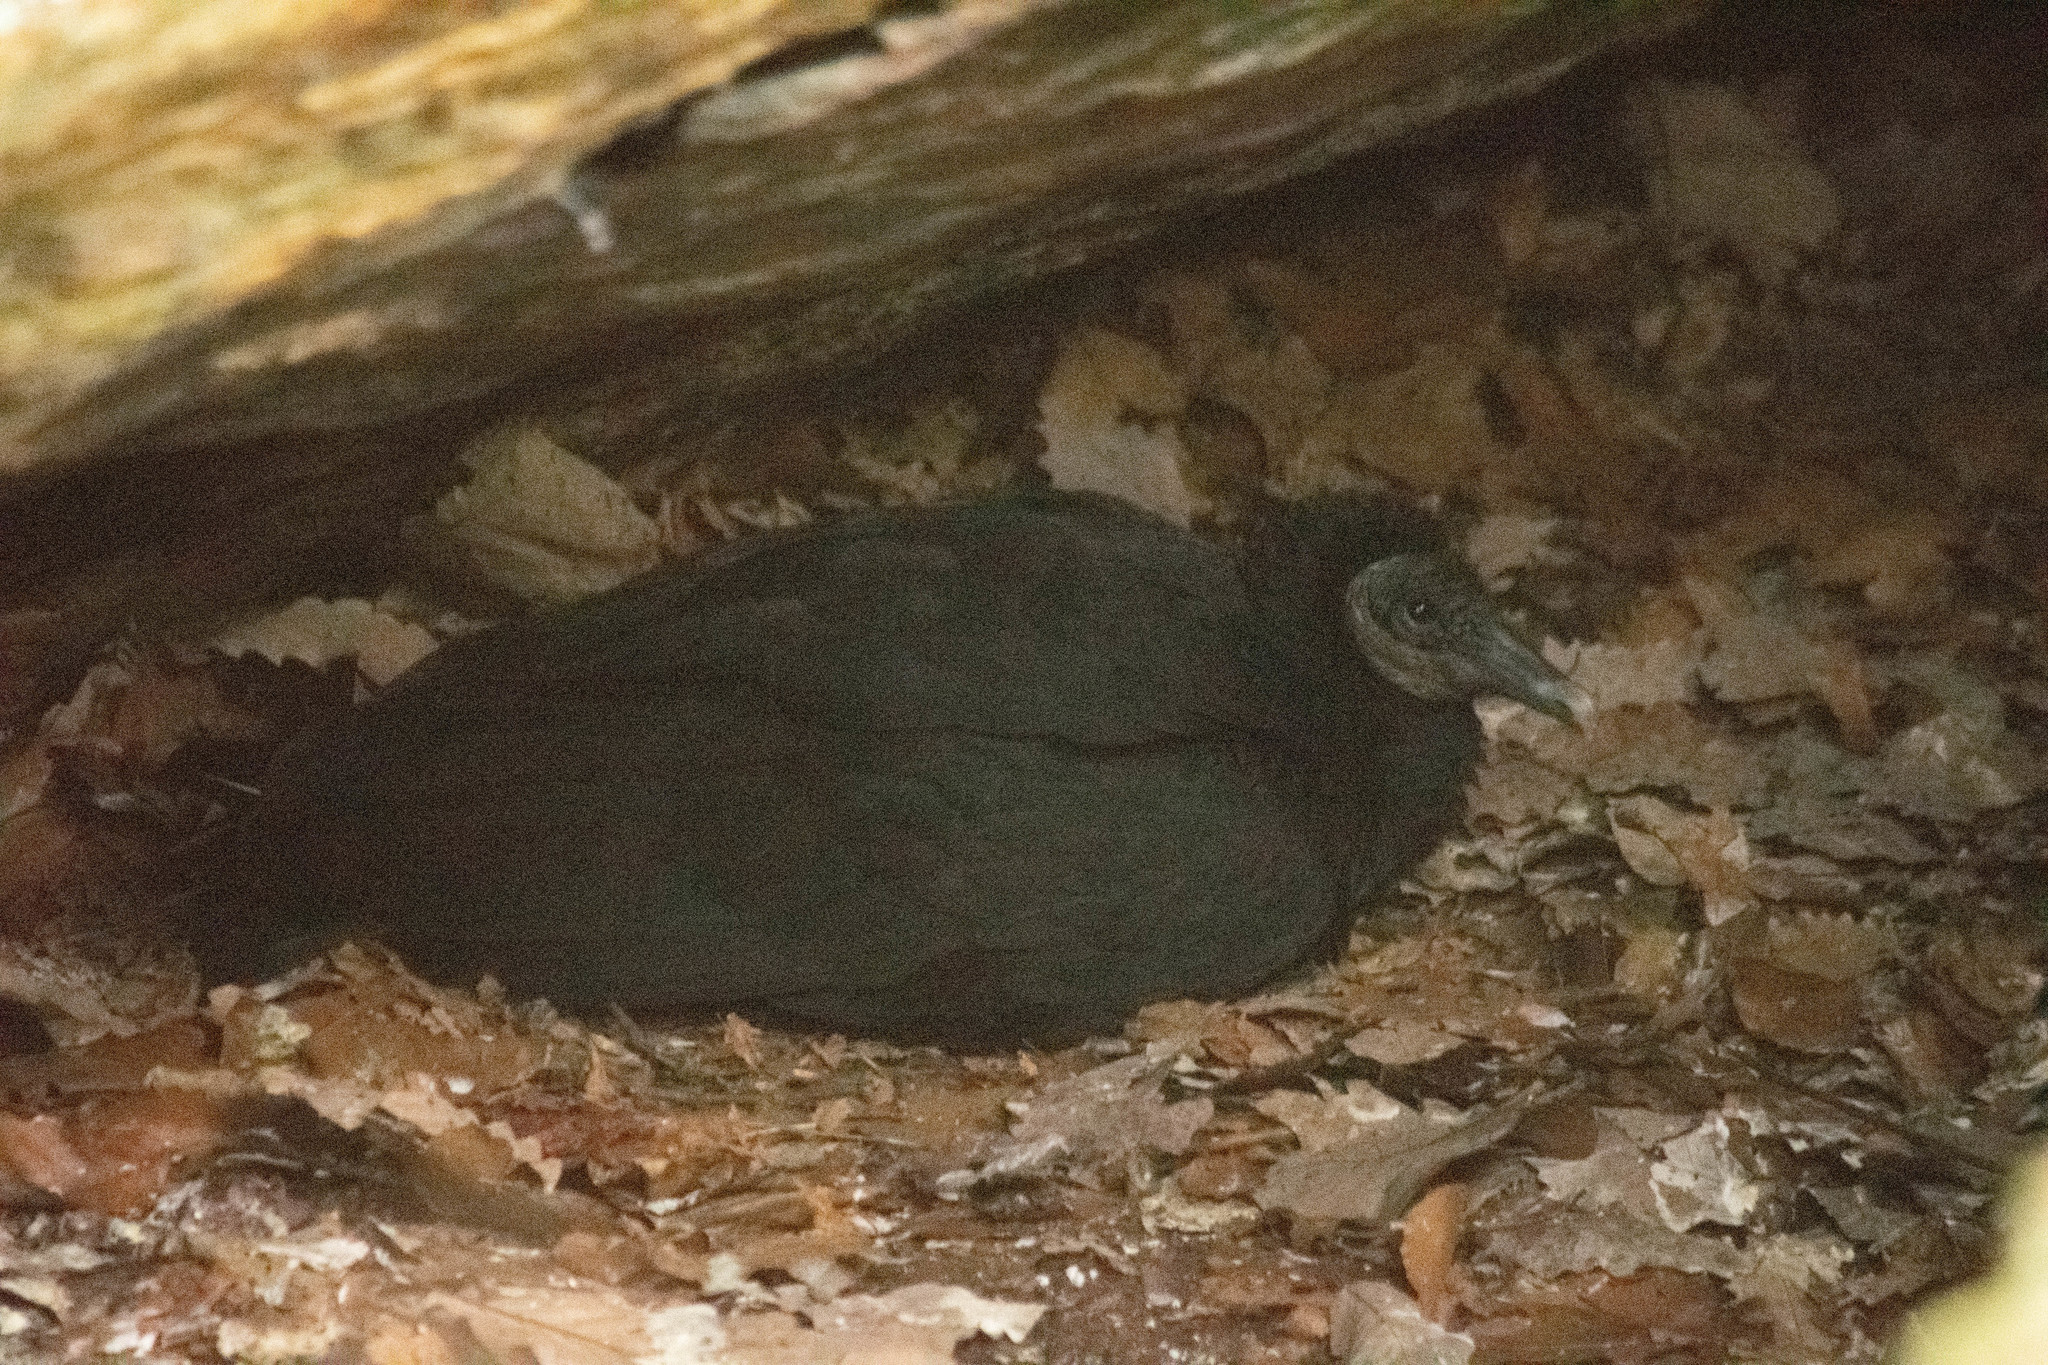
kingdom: Animalia
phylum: Chordata
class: Aves
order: Accipitriformes
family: Cathartidae
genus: Coragyps
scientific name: Coragyps atratus
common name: Black vulture
